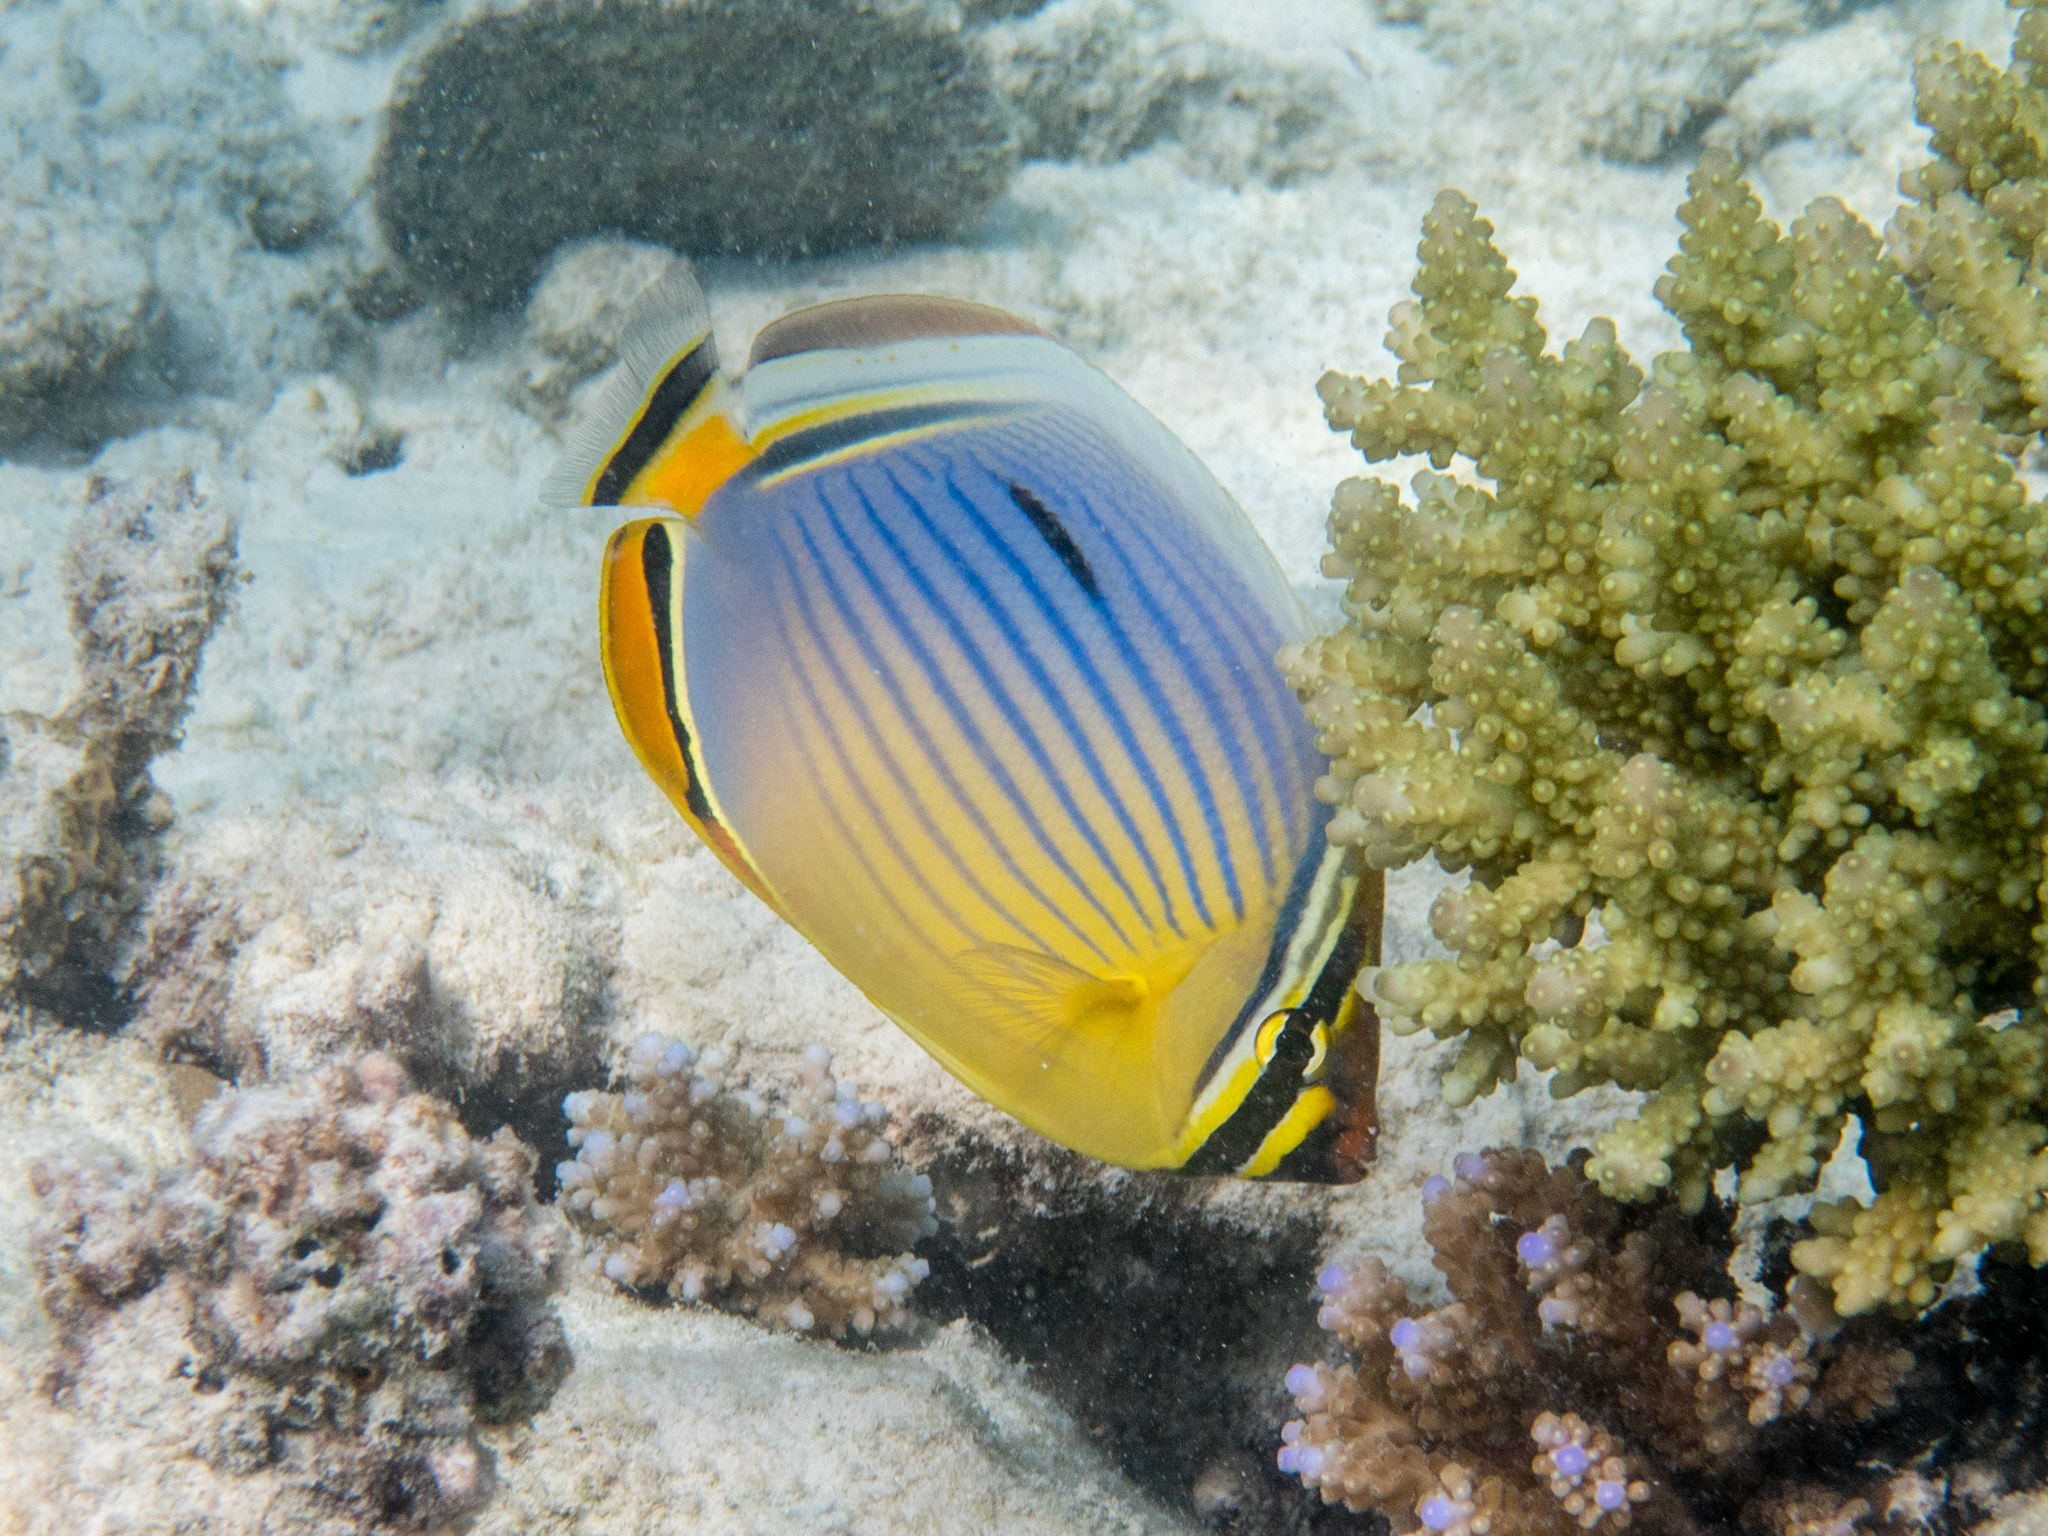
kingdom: Animalia
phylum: Chordata
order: Perciformes
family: Chaetodontidae
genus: Chaetodon
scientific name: Chaetodon trifasciatus
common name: Redfin butterflyfish
